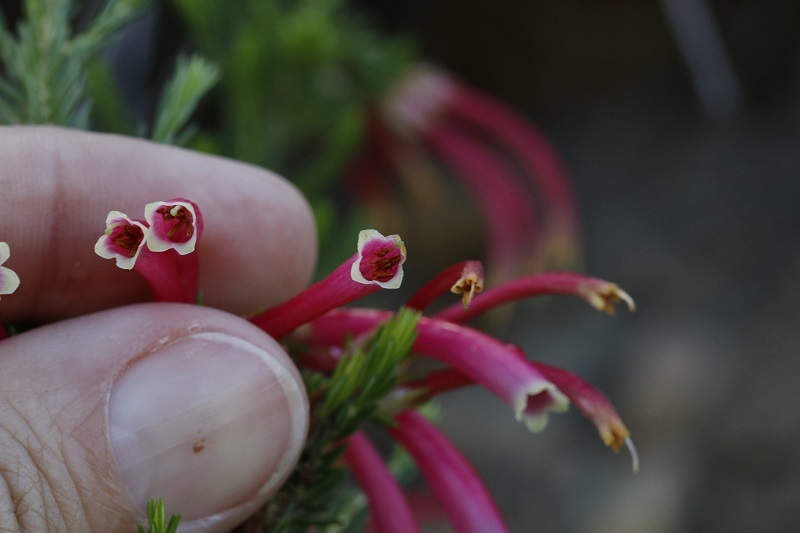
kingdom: Plantae
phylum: Tracheophyta
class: Magnoliopsida
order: Ericales
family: Ericaceae
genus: Erica
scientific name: Erica densifolia
